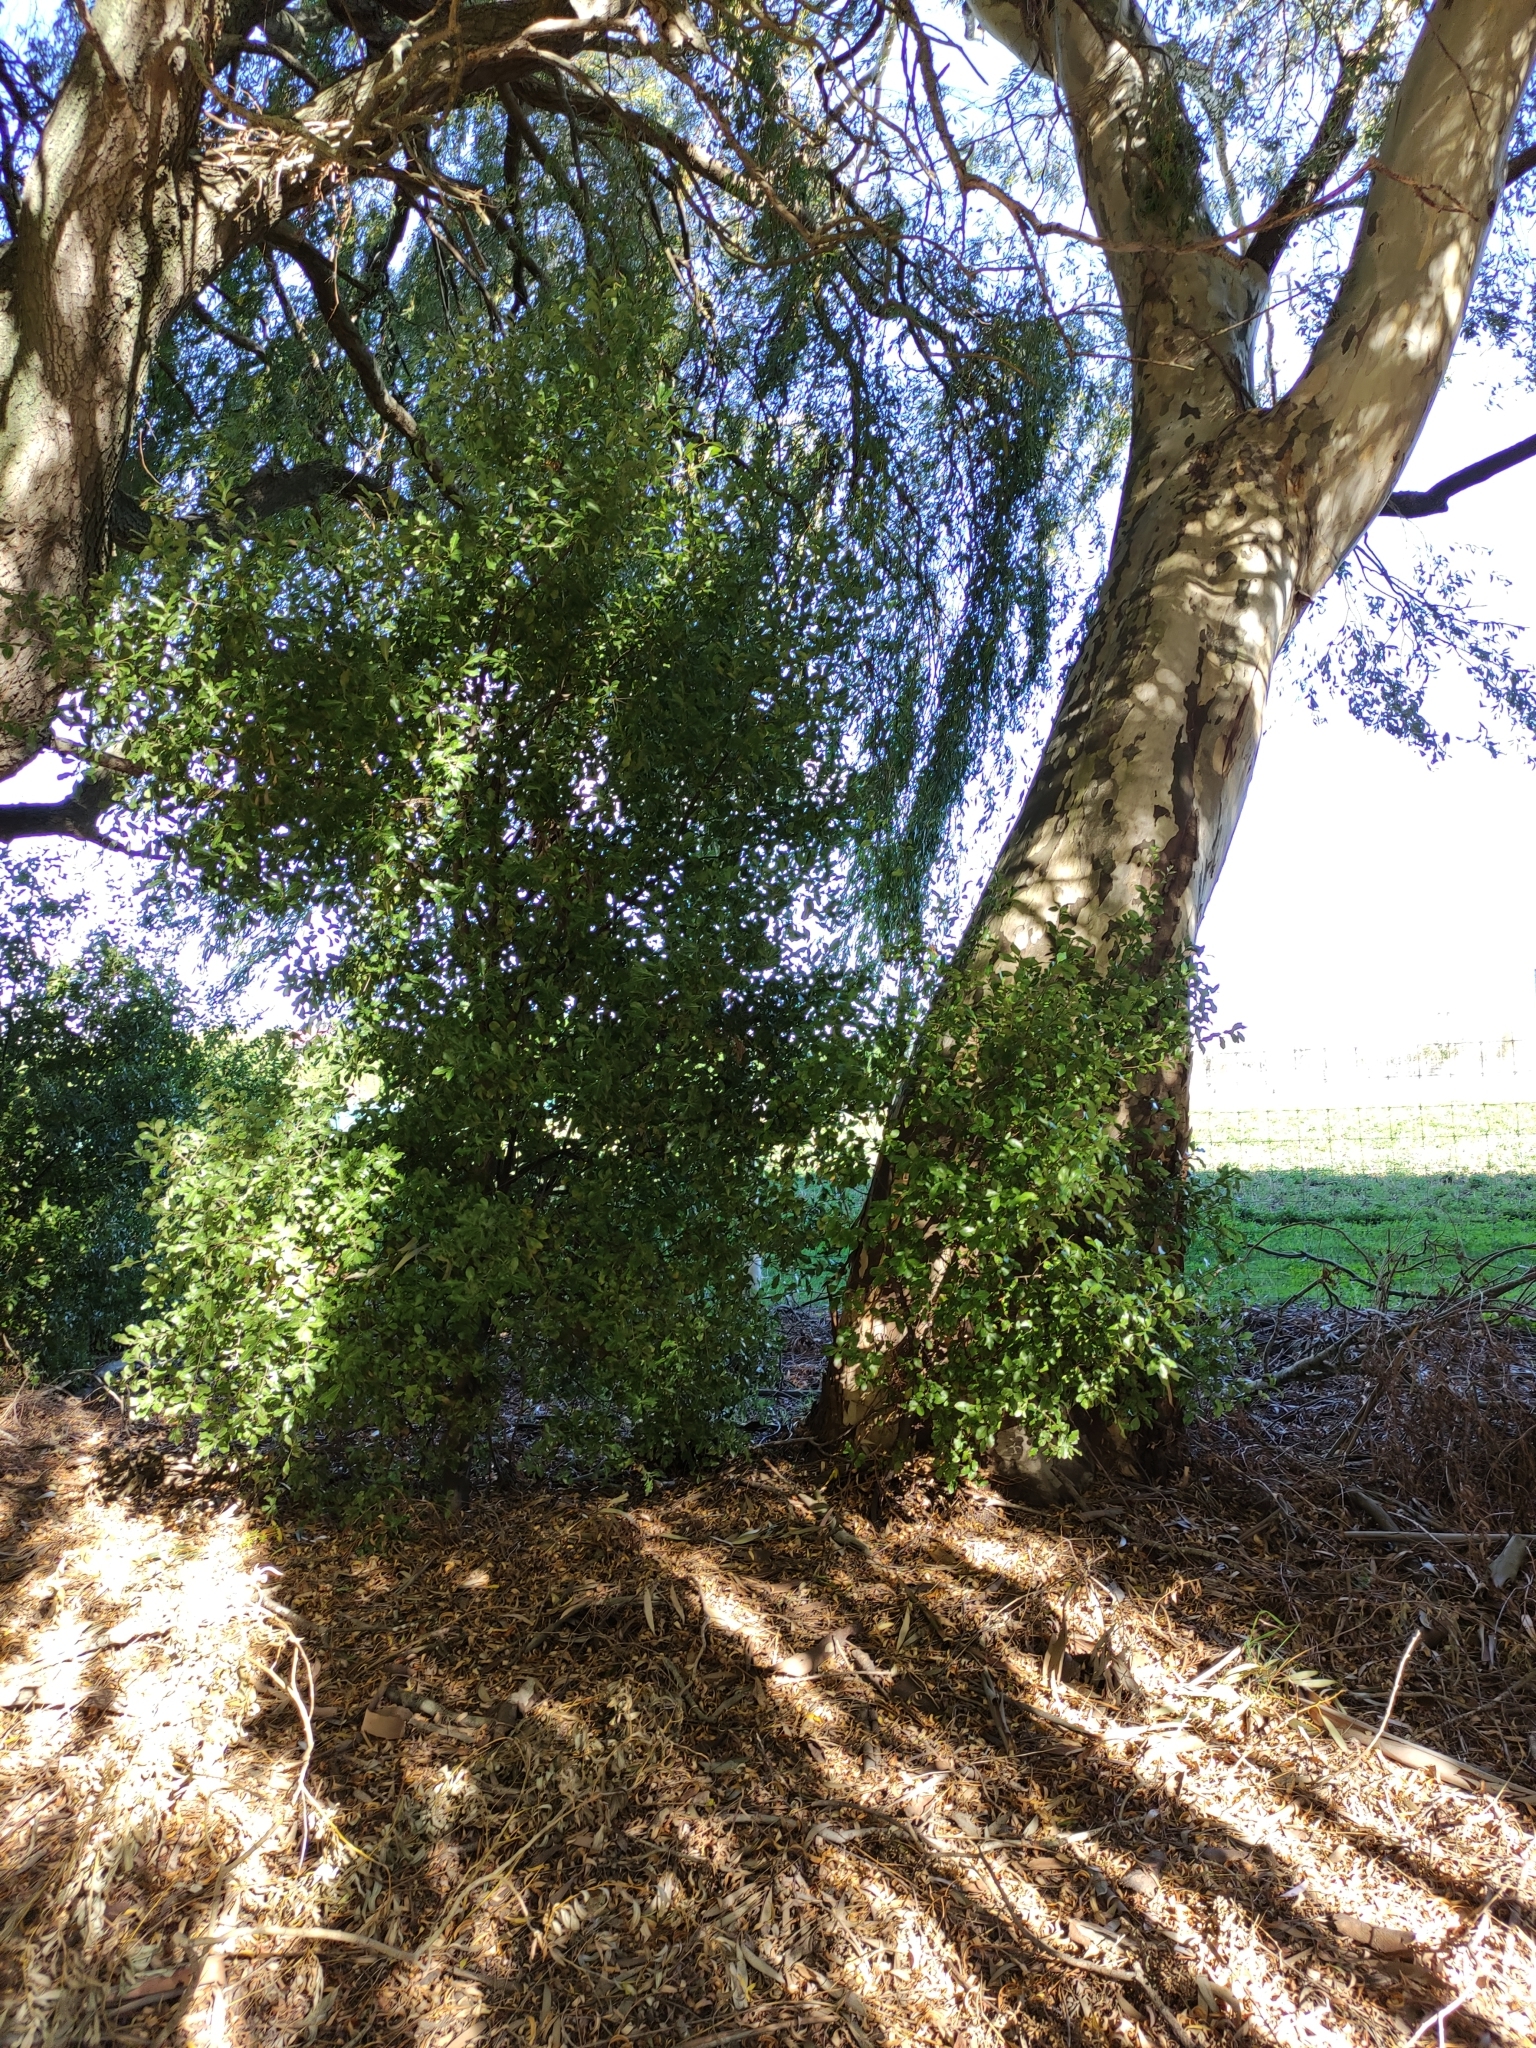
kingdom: Plantae
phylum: Tracheophyta
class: Magnoliopsida
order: Apiales
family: Pittosporaceae
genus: Pittosporum
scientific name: Pittosporum tenuifolium
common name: Kohuhu
